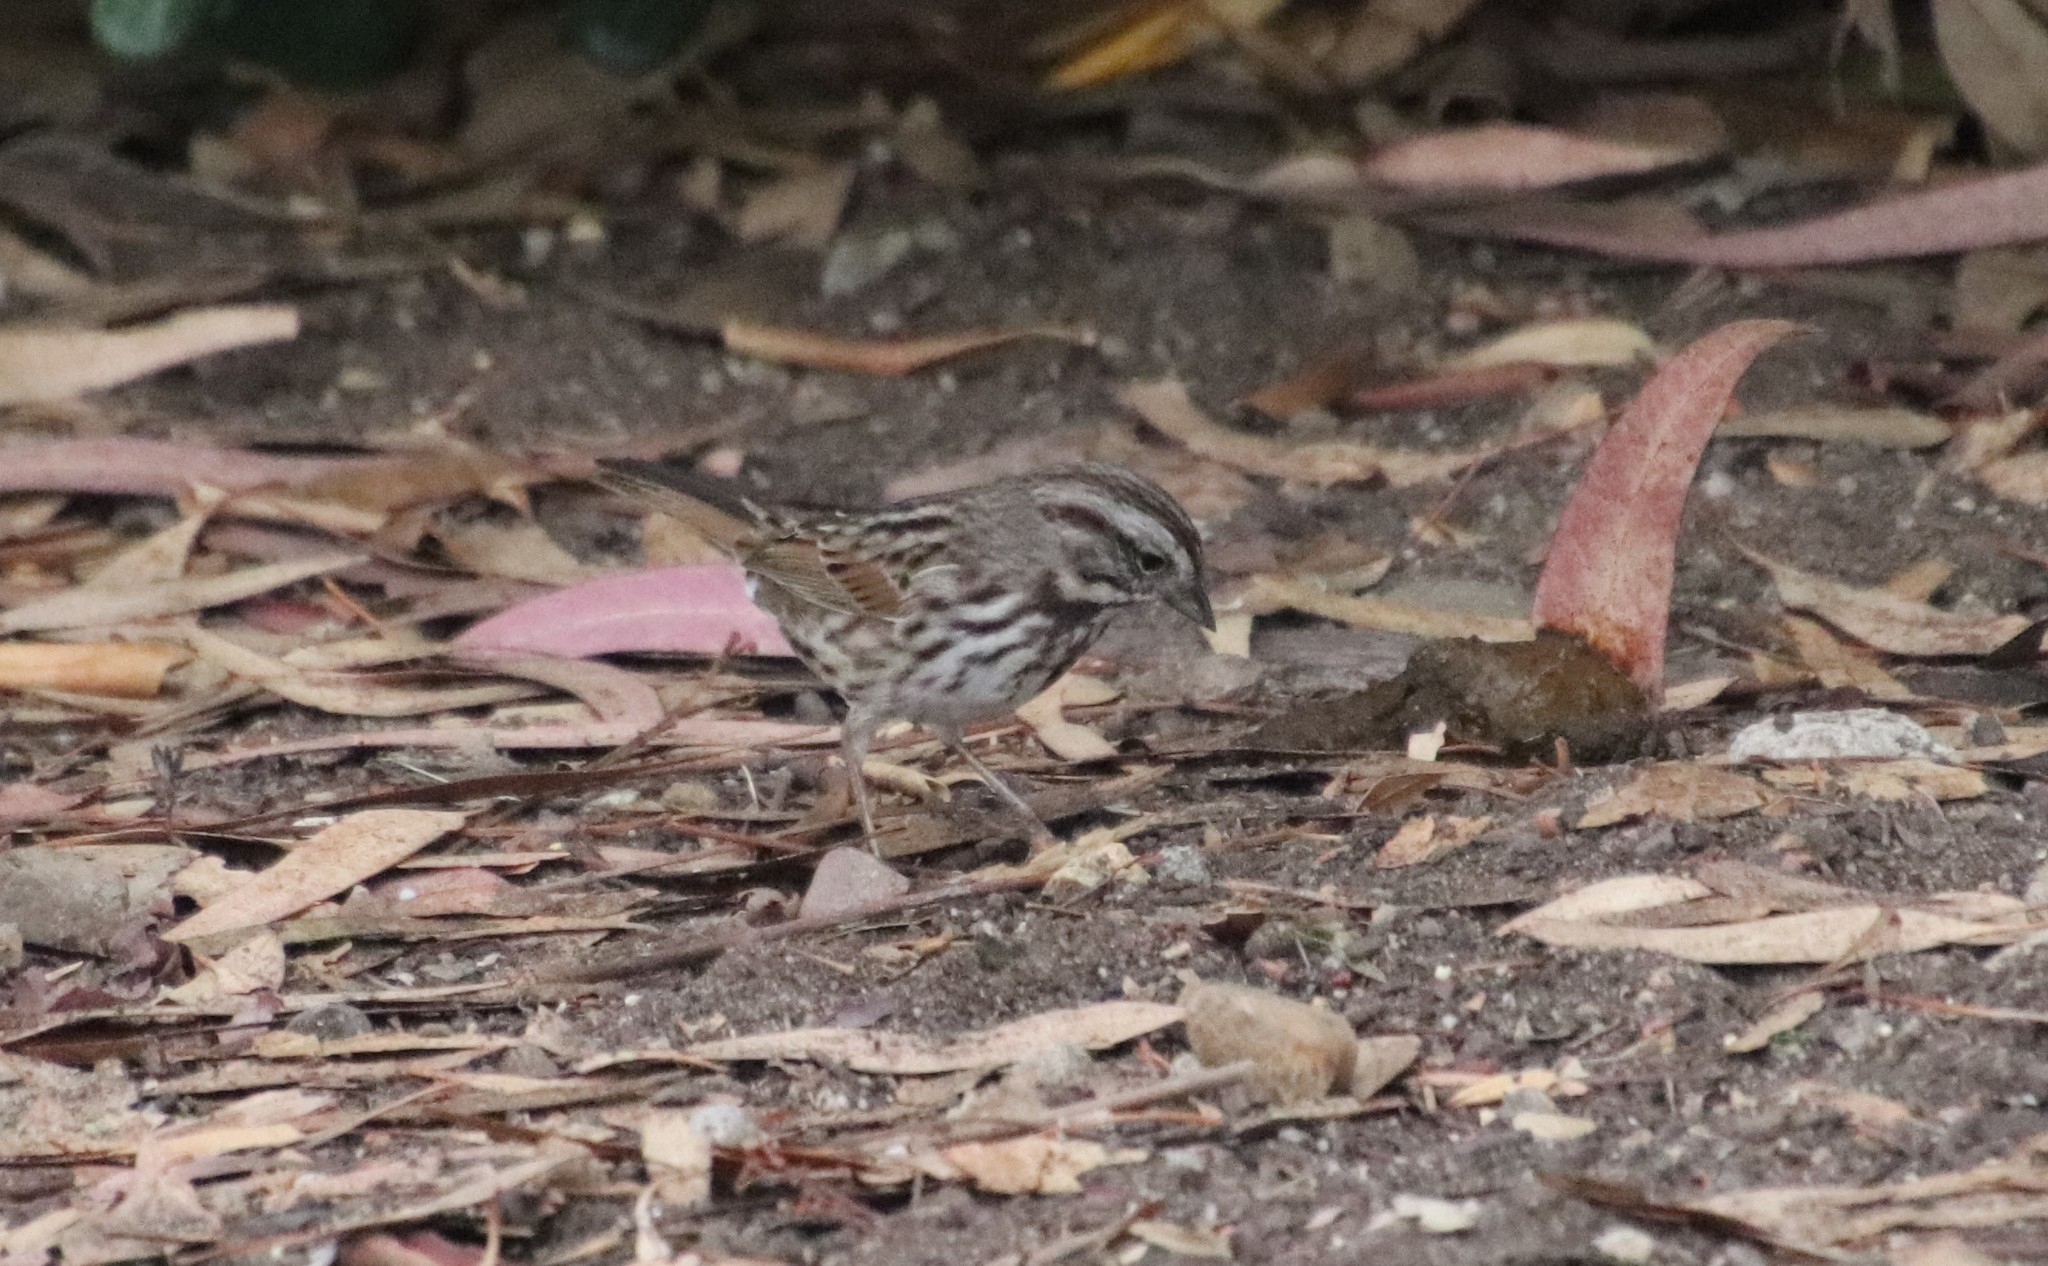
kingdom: Animalia
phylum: Chordata
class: Aves
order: Passeriformes
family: Passerellidae
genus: Melospiza
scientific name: Melospiza melodia
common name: Song sparrow
